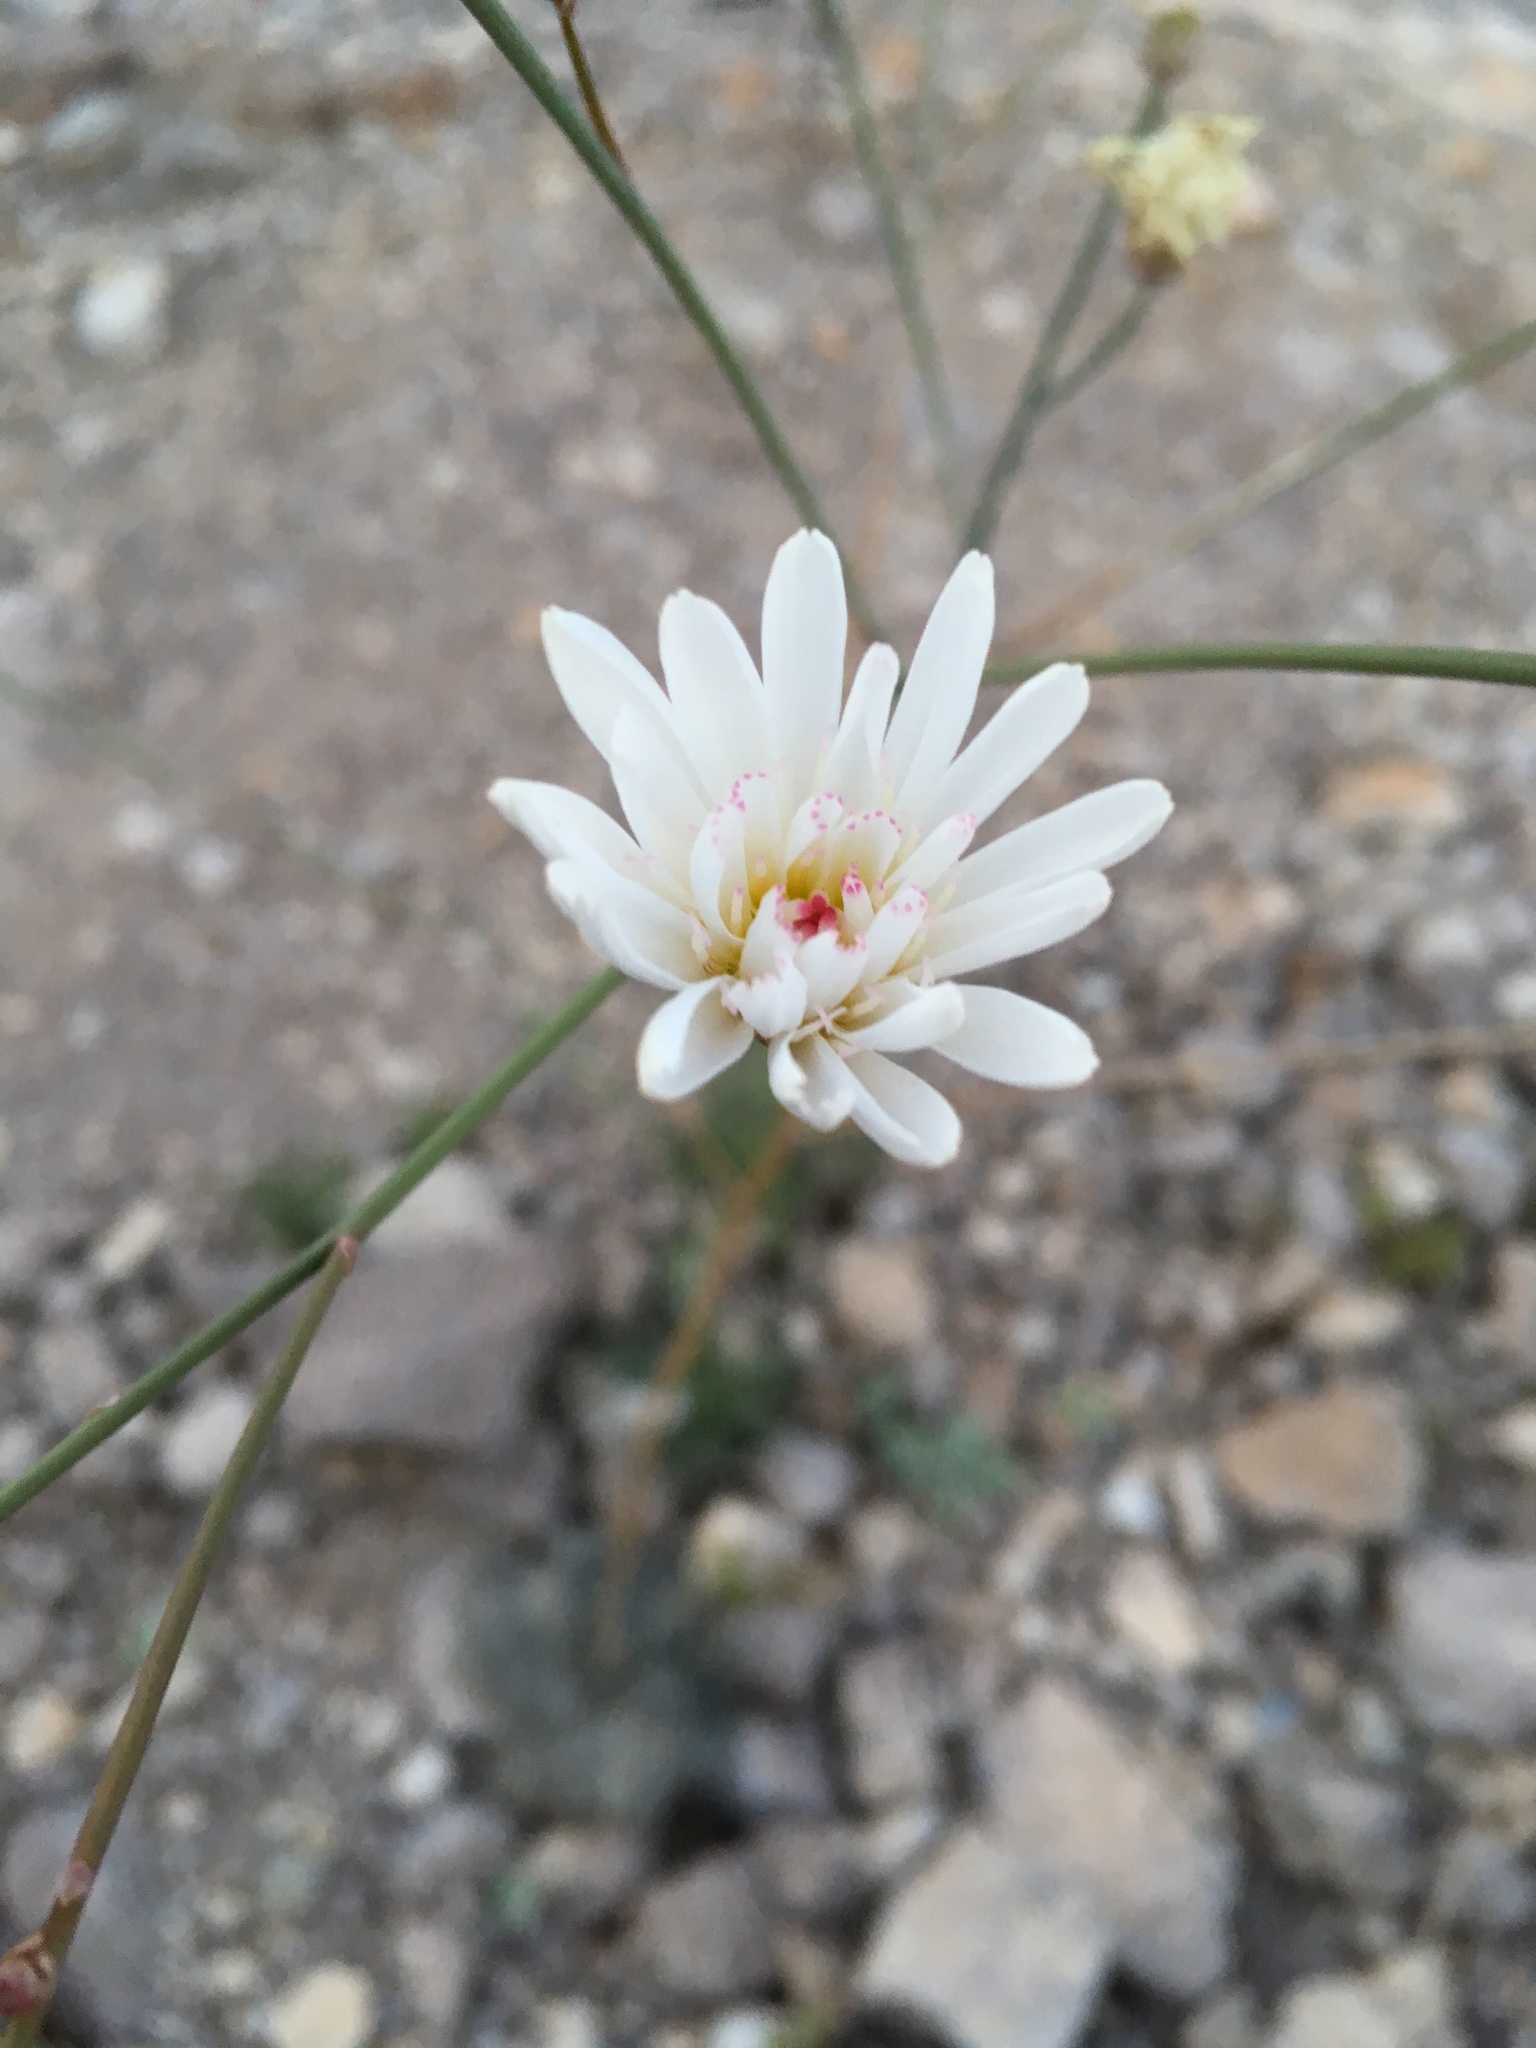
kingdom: Plantae
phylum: Tracheophyta
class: Magnoliopsida
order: Asterales
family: Asteraceae
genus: Atrichoseris
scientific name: Atrichoseris platyphylla
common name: Tobaccoweed
